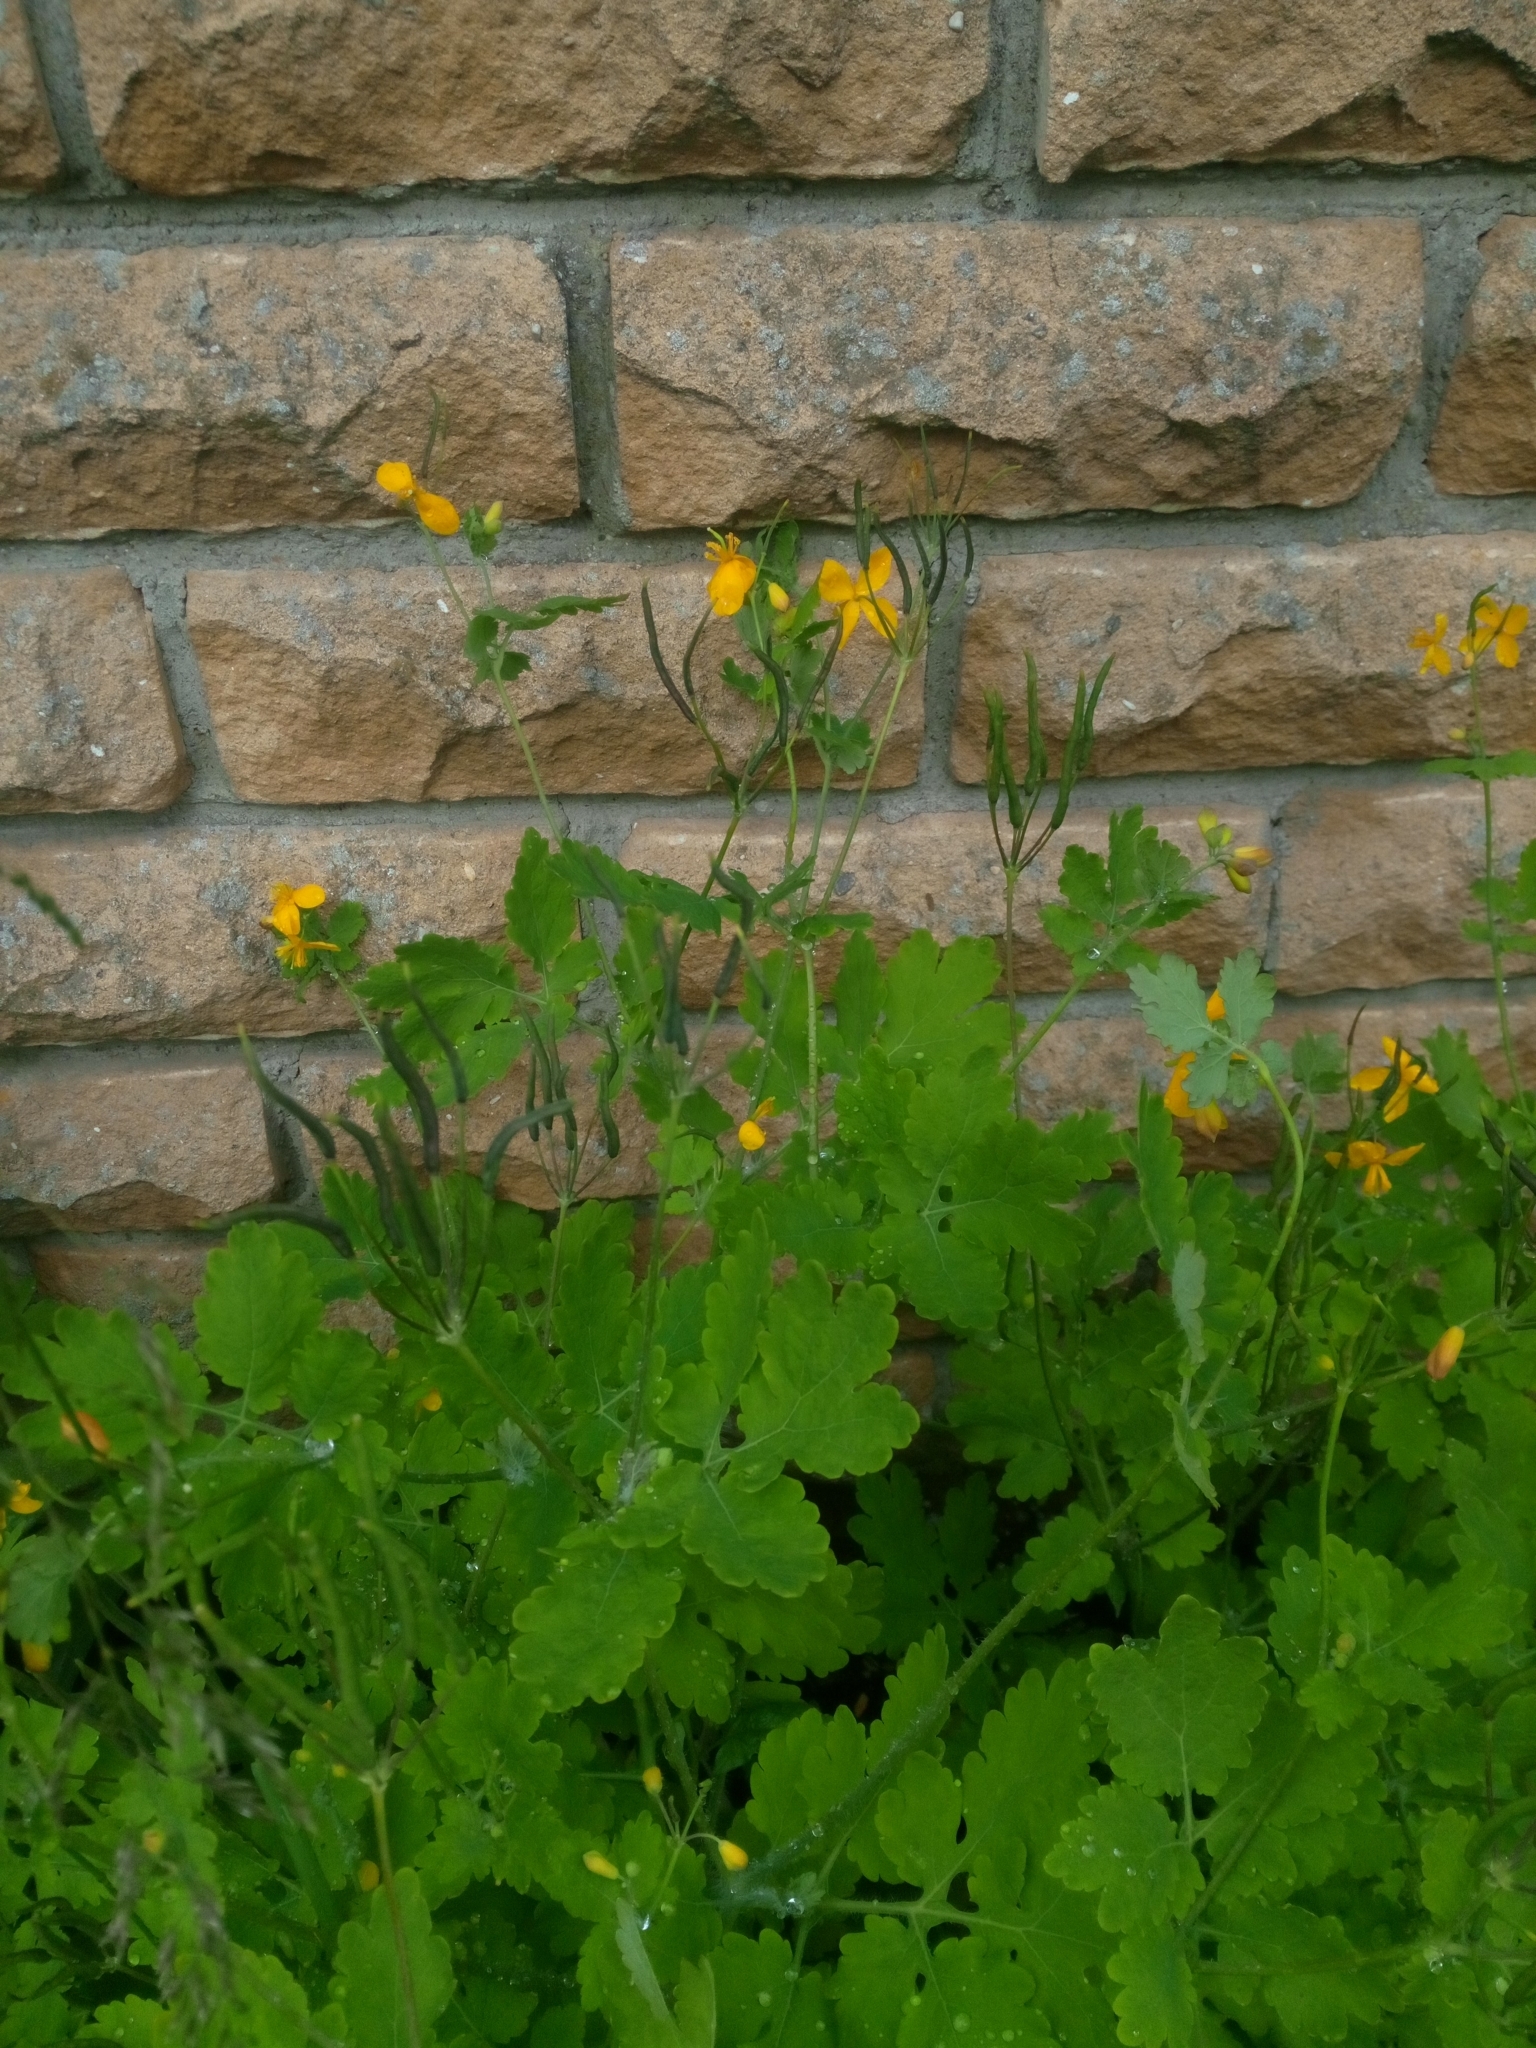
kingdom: Plantae
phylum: Tracheophyta
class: Magnoliopsida
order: Ranunculales
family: Papaveraceae
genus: Chelidonium
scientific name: Chelidonium majus
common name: Greater celandine
